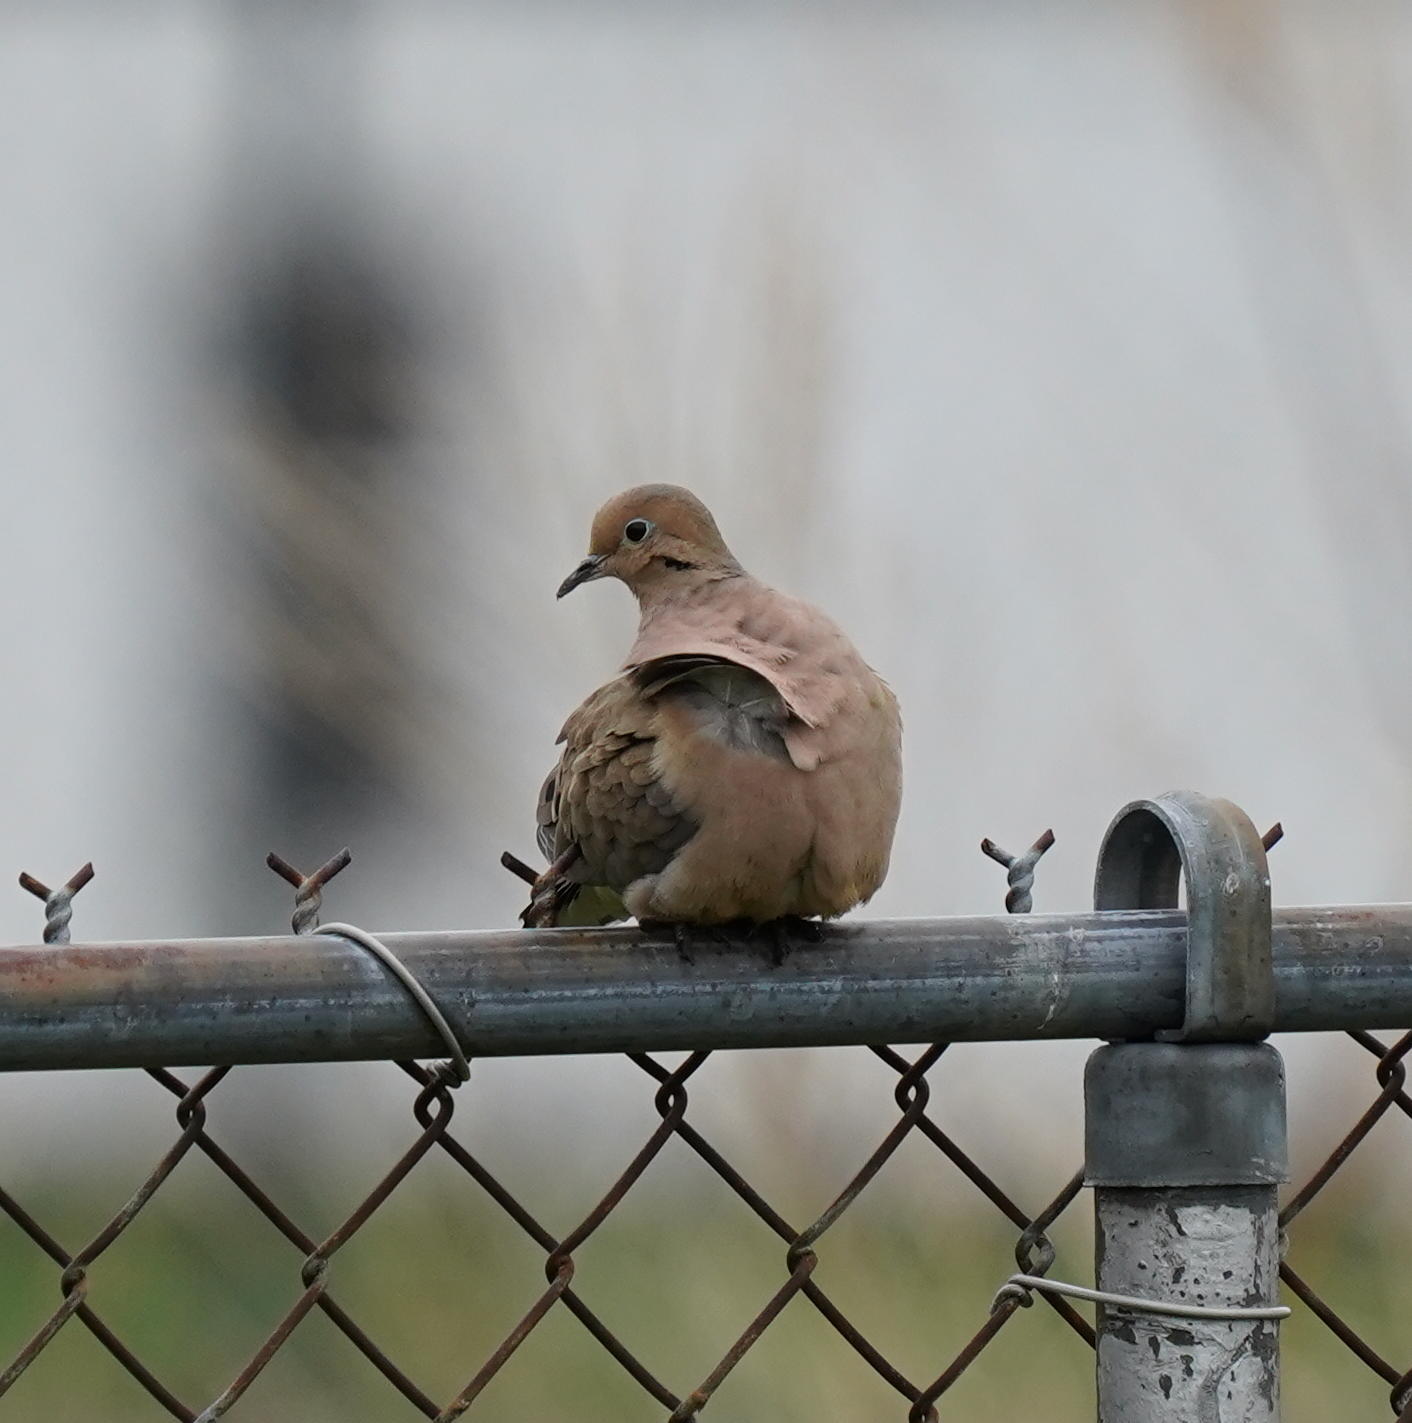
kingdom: Animalia
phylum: Chordata
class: Aves
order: Columbiformes
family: Columbidae
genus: Zenaida
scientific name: Zenaida macroura
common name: Mourning dove
